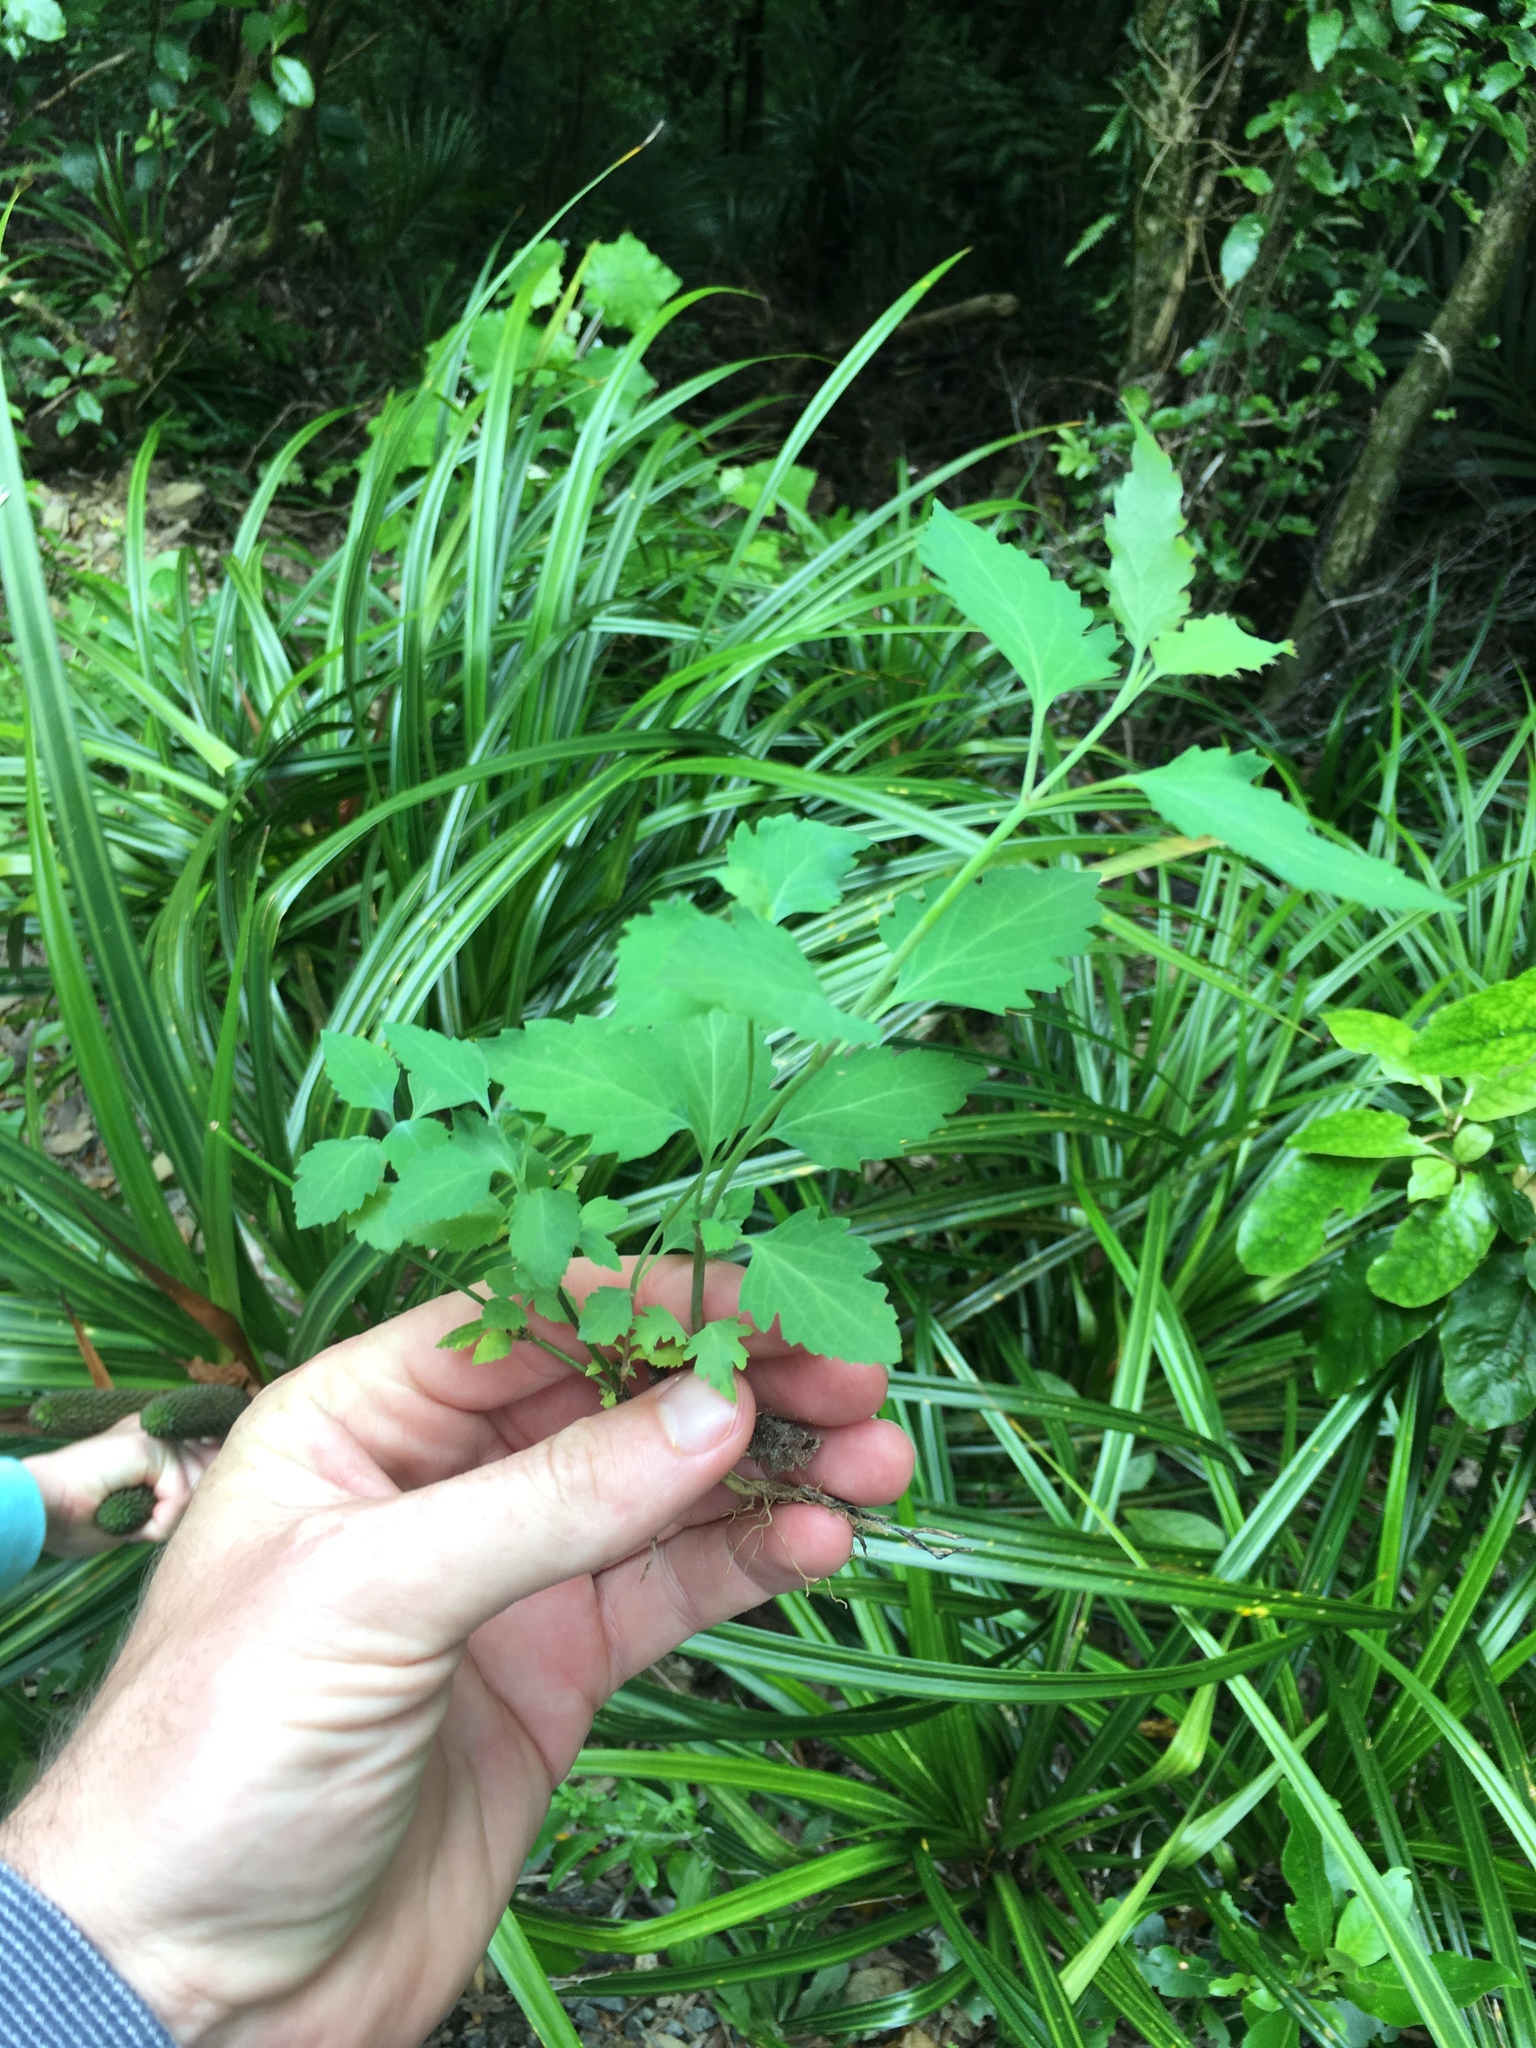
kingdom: Plantae
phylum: Tracheophyta
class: Magnoliopsida
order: Dipsacales
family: Caprifoliaceae
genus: Leycesteria
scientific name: Leycesteria formosa
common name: Himalayan honeysuckle
